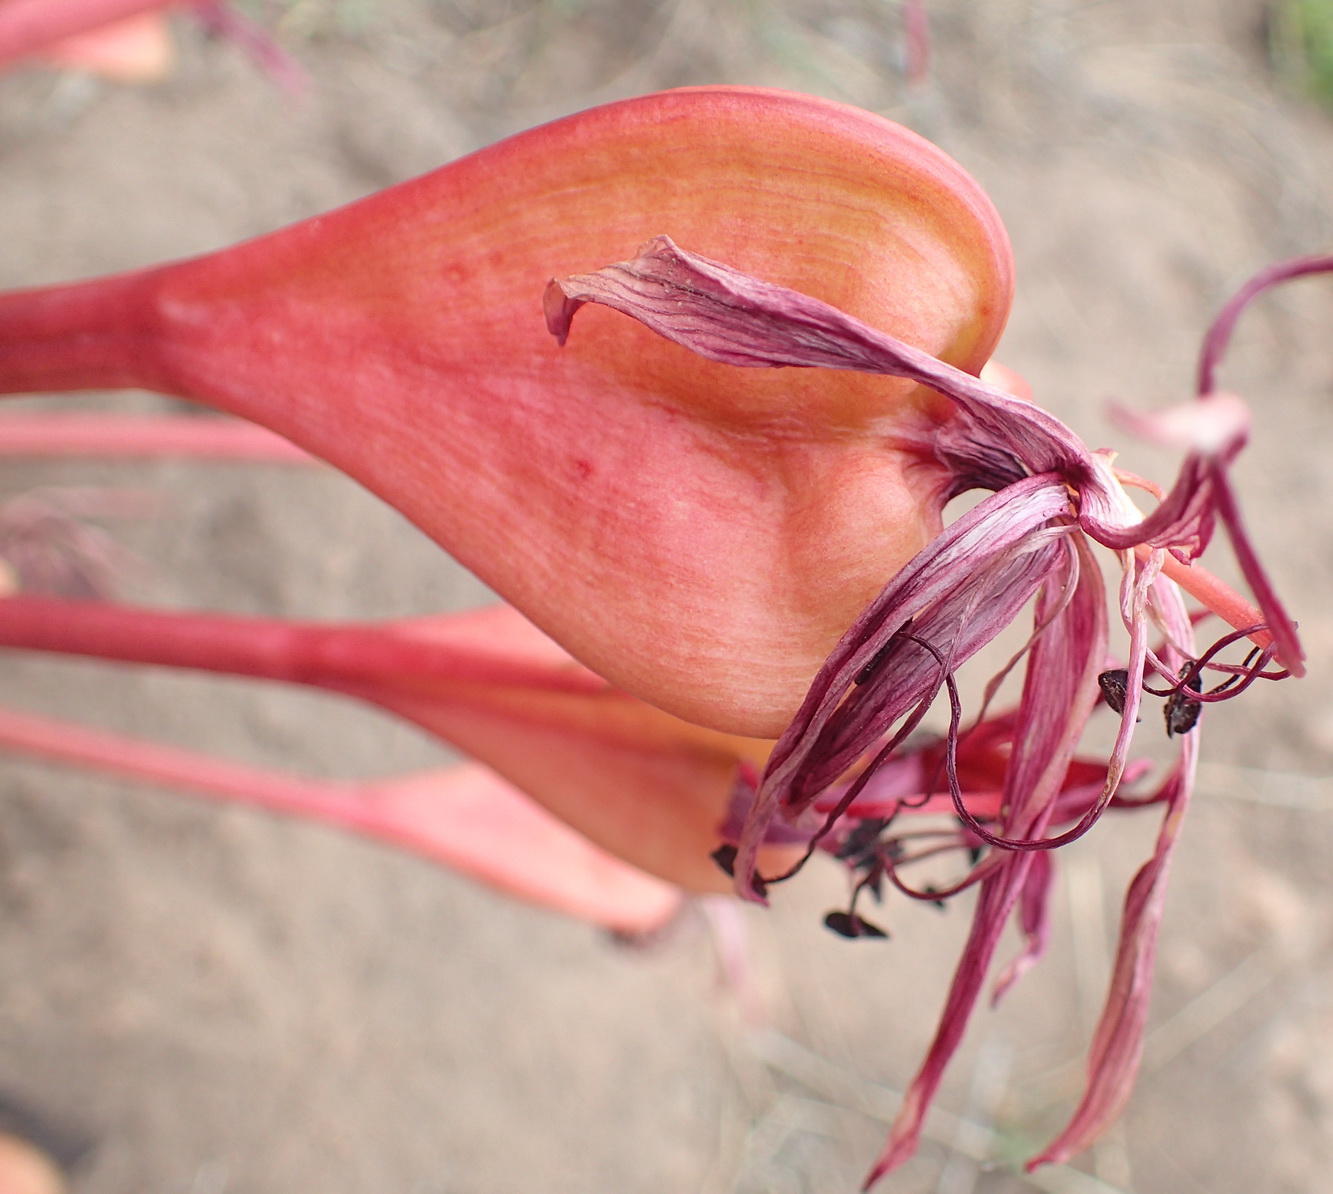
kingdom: Plantae
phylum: Tracheophyta
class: Liliopsida
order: Asparagales
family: Amaryllidaceae
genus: Brunsvigia
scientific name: Brunsvigia orientalis
